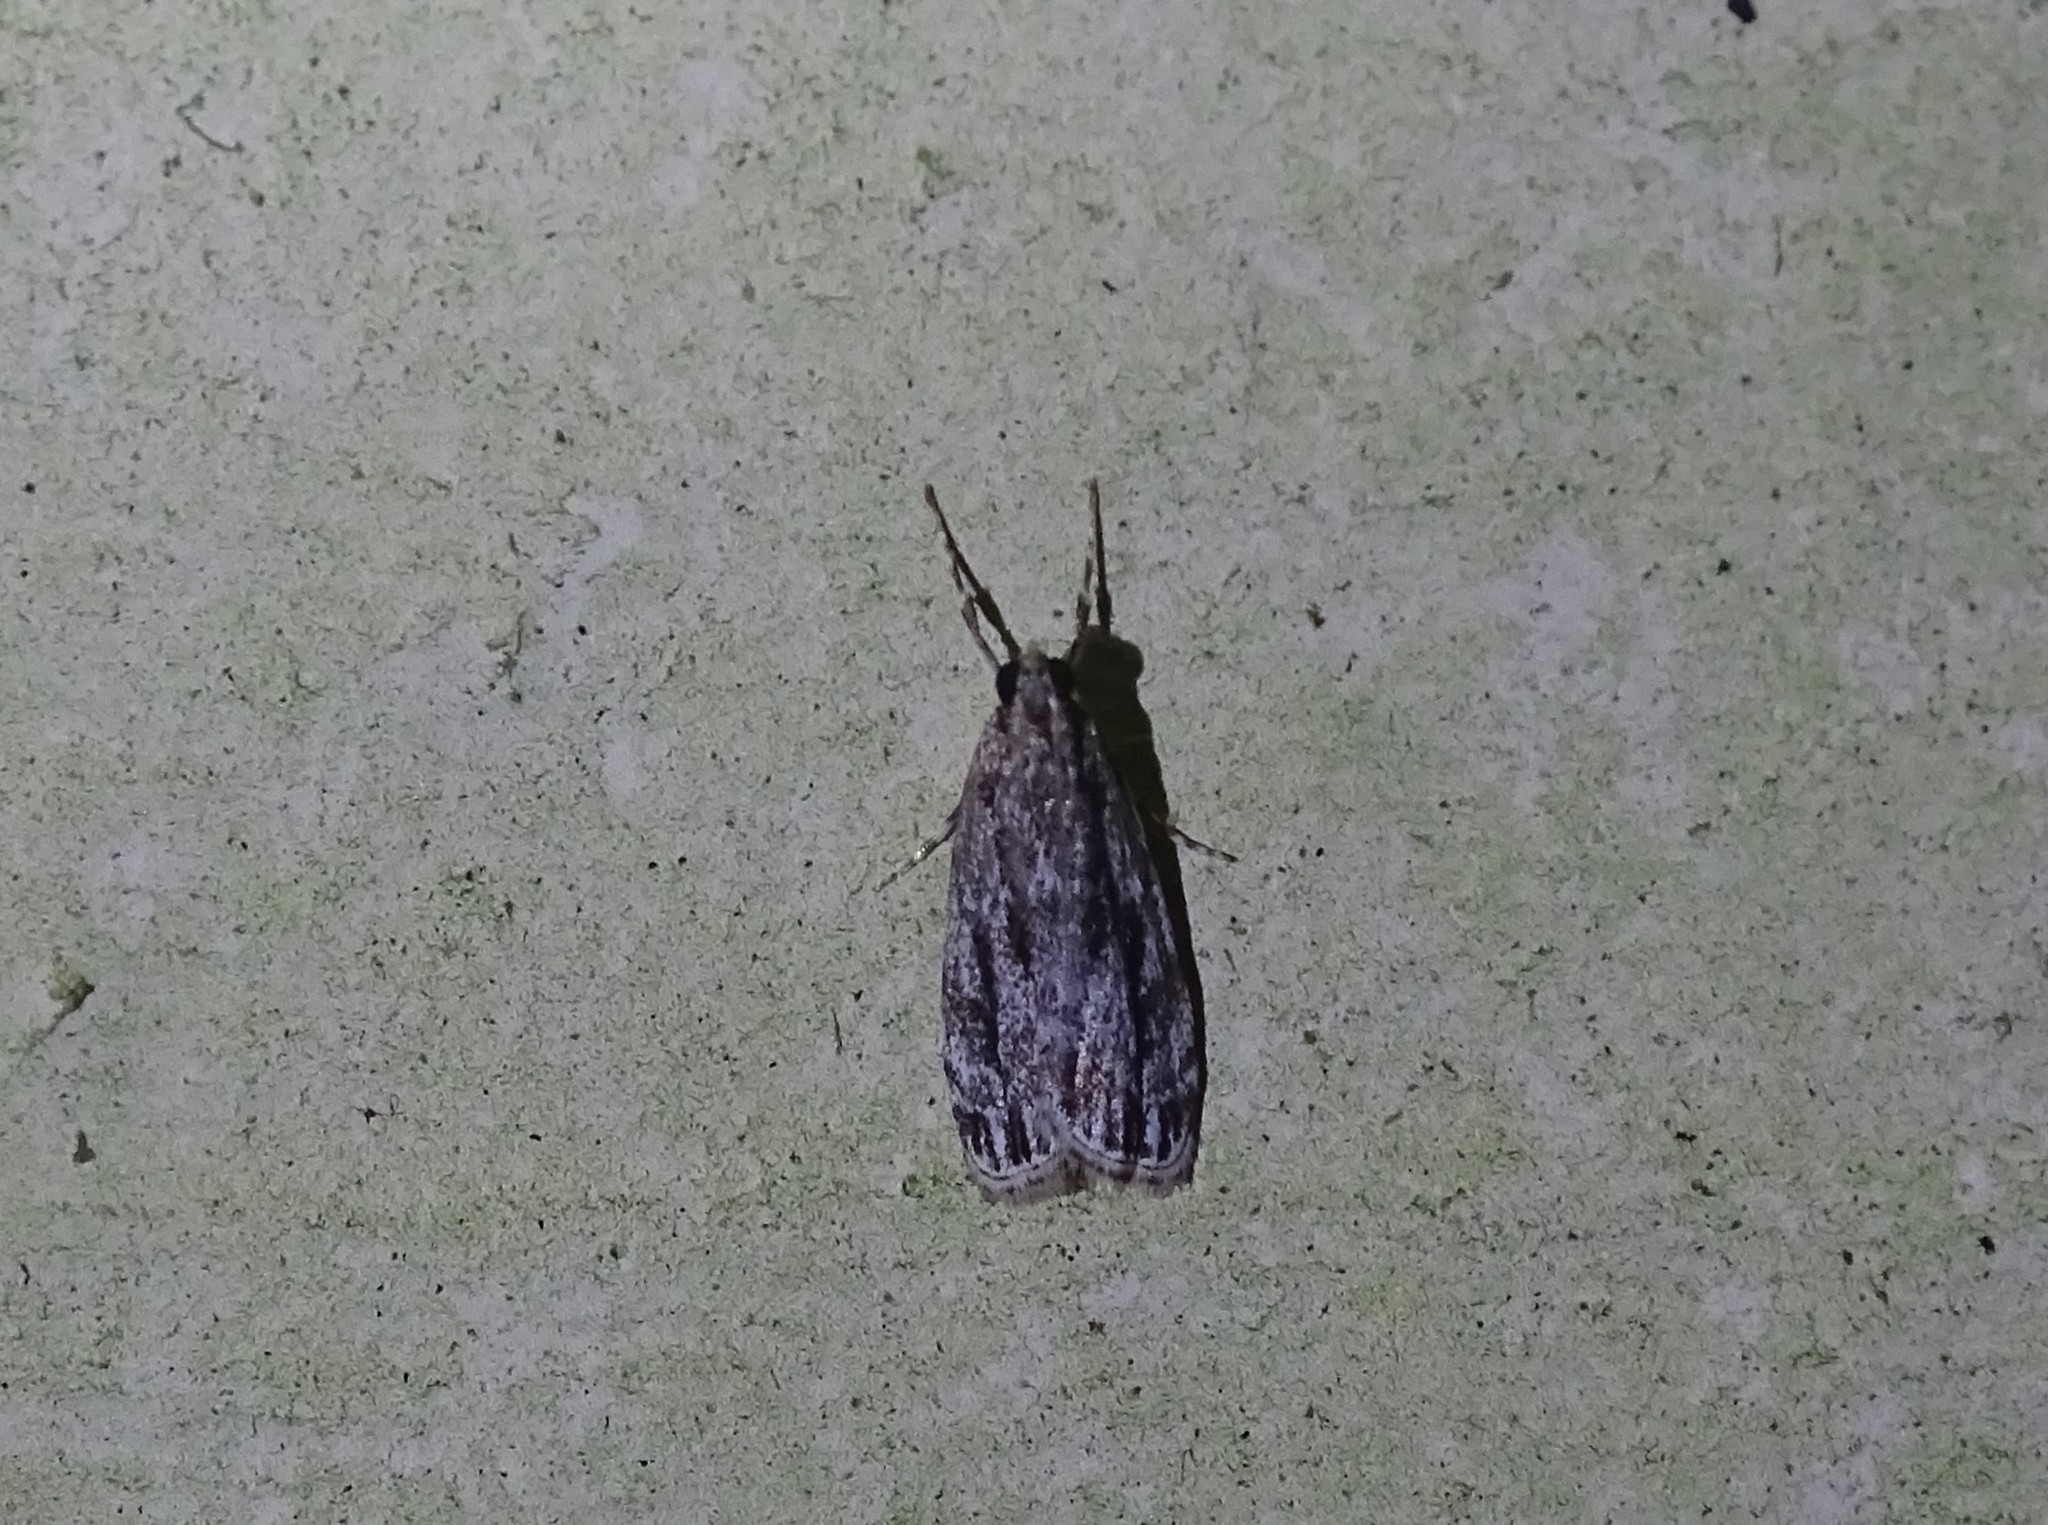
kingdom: Animalia
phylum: Arthropoda
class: Insecta
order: Lepidoptera
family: Crambidae
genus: Eudonia
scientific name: Eudonia strigalis
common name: Striped eudonia moth
